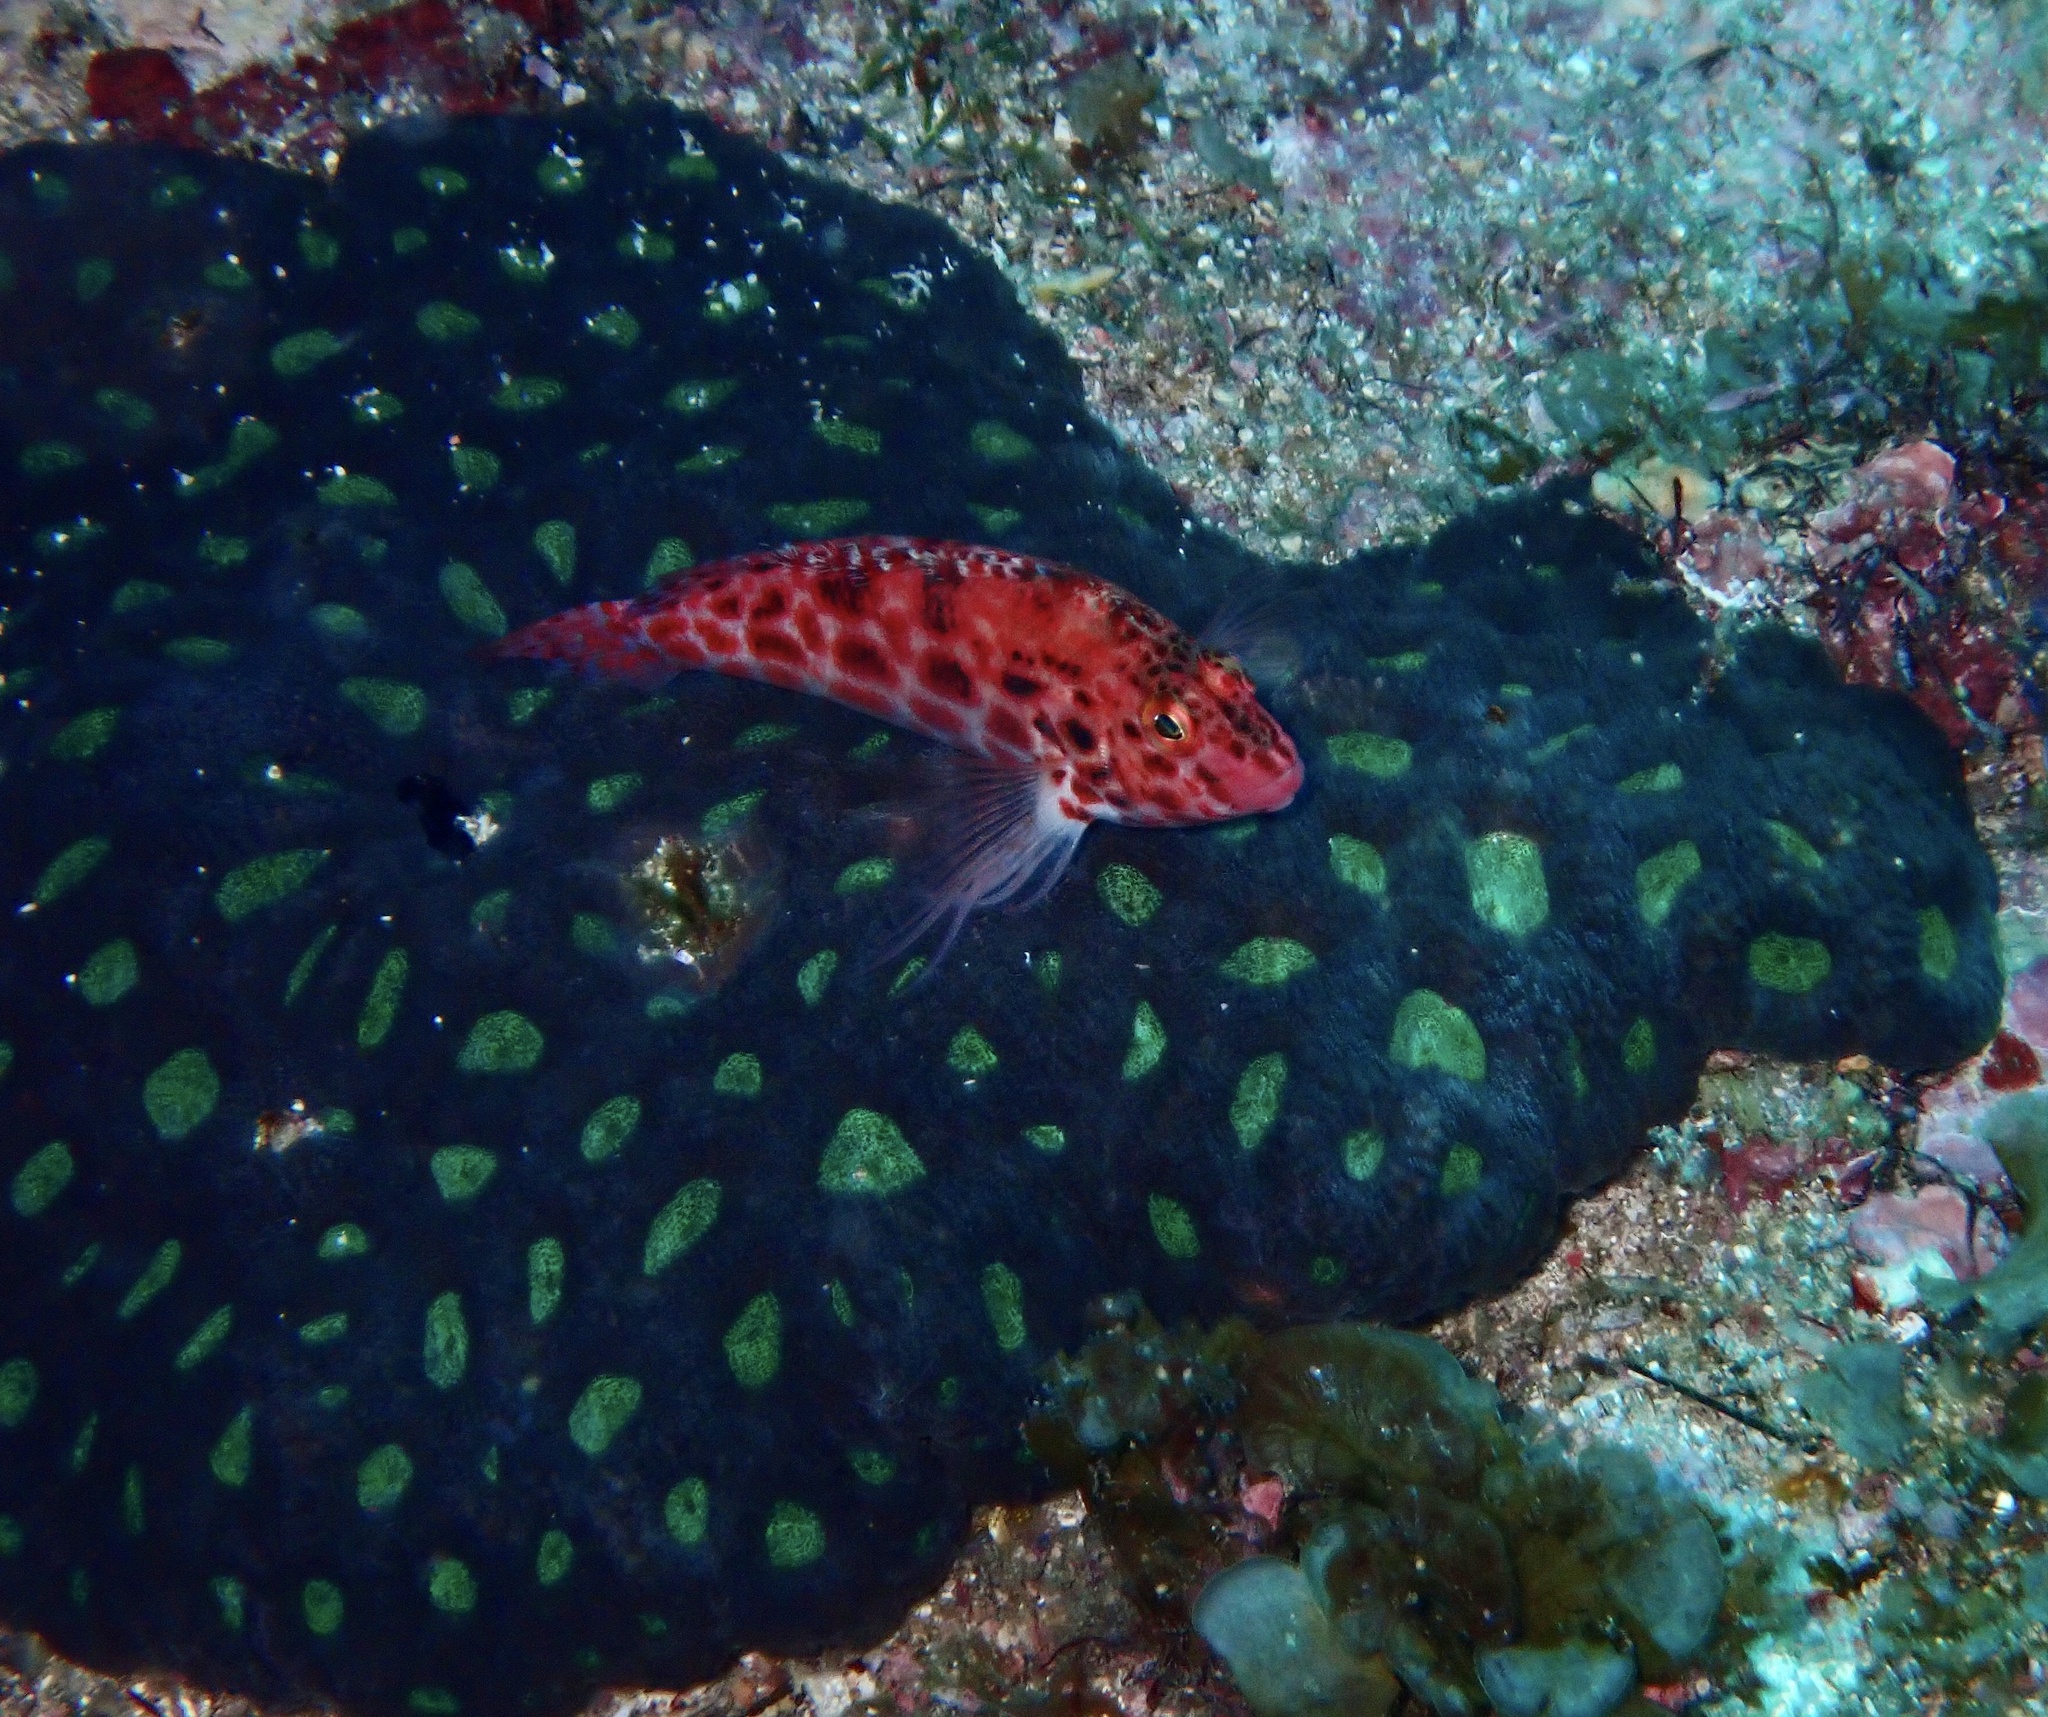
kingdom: Animalia
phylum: Cnidaria
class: Anthozoa
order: Scleractinia
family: Lobophylliidae
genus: Homophyllia
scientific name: Homophyllia bowerbanki
